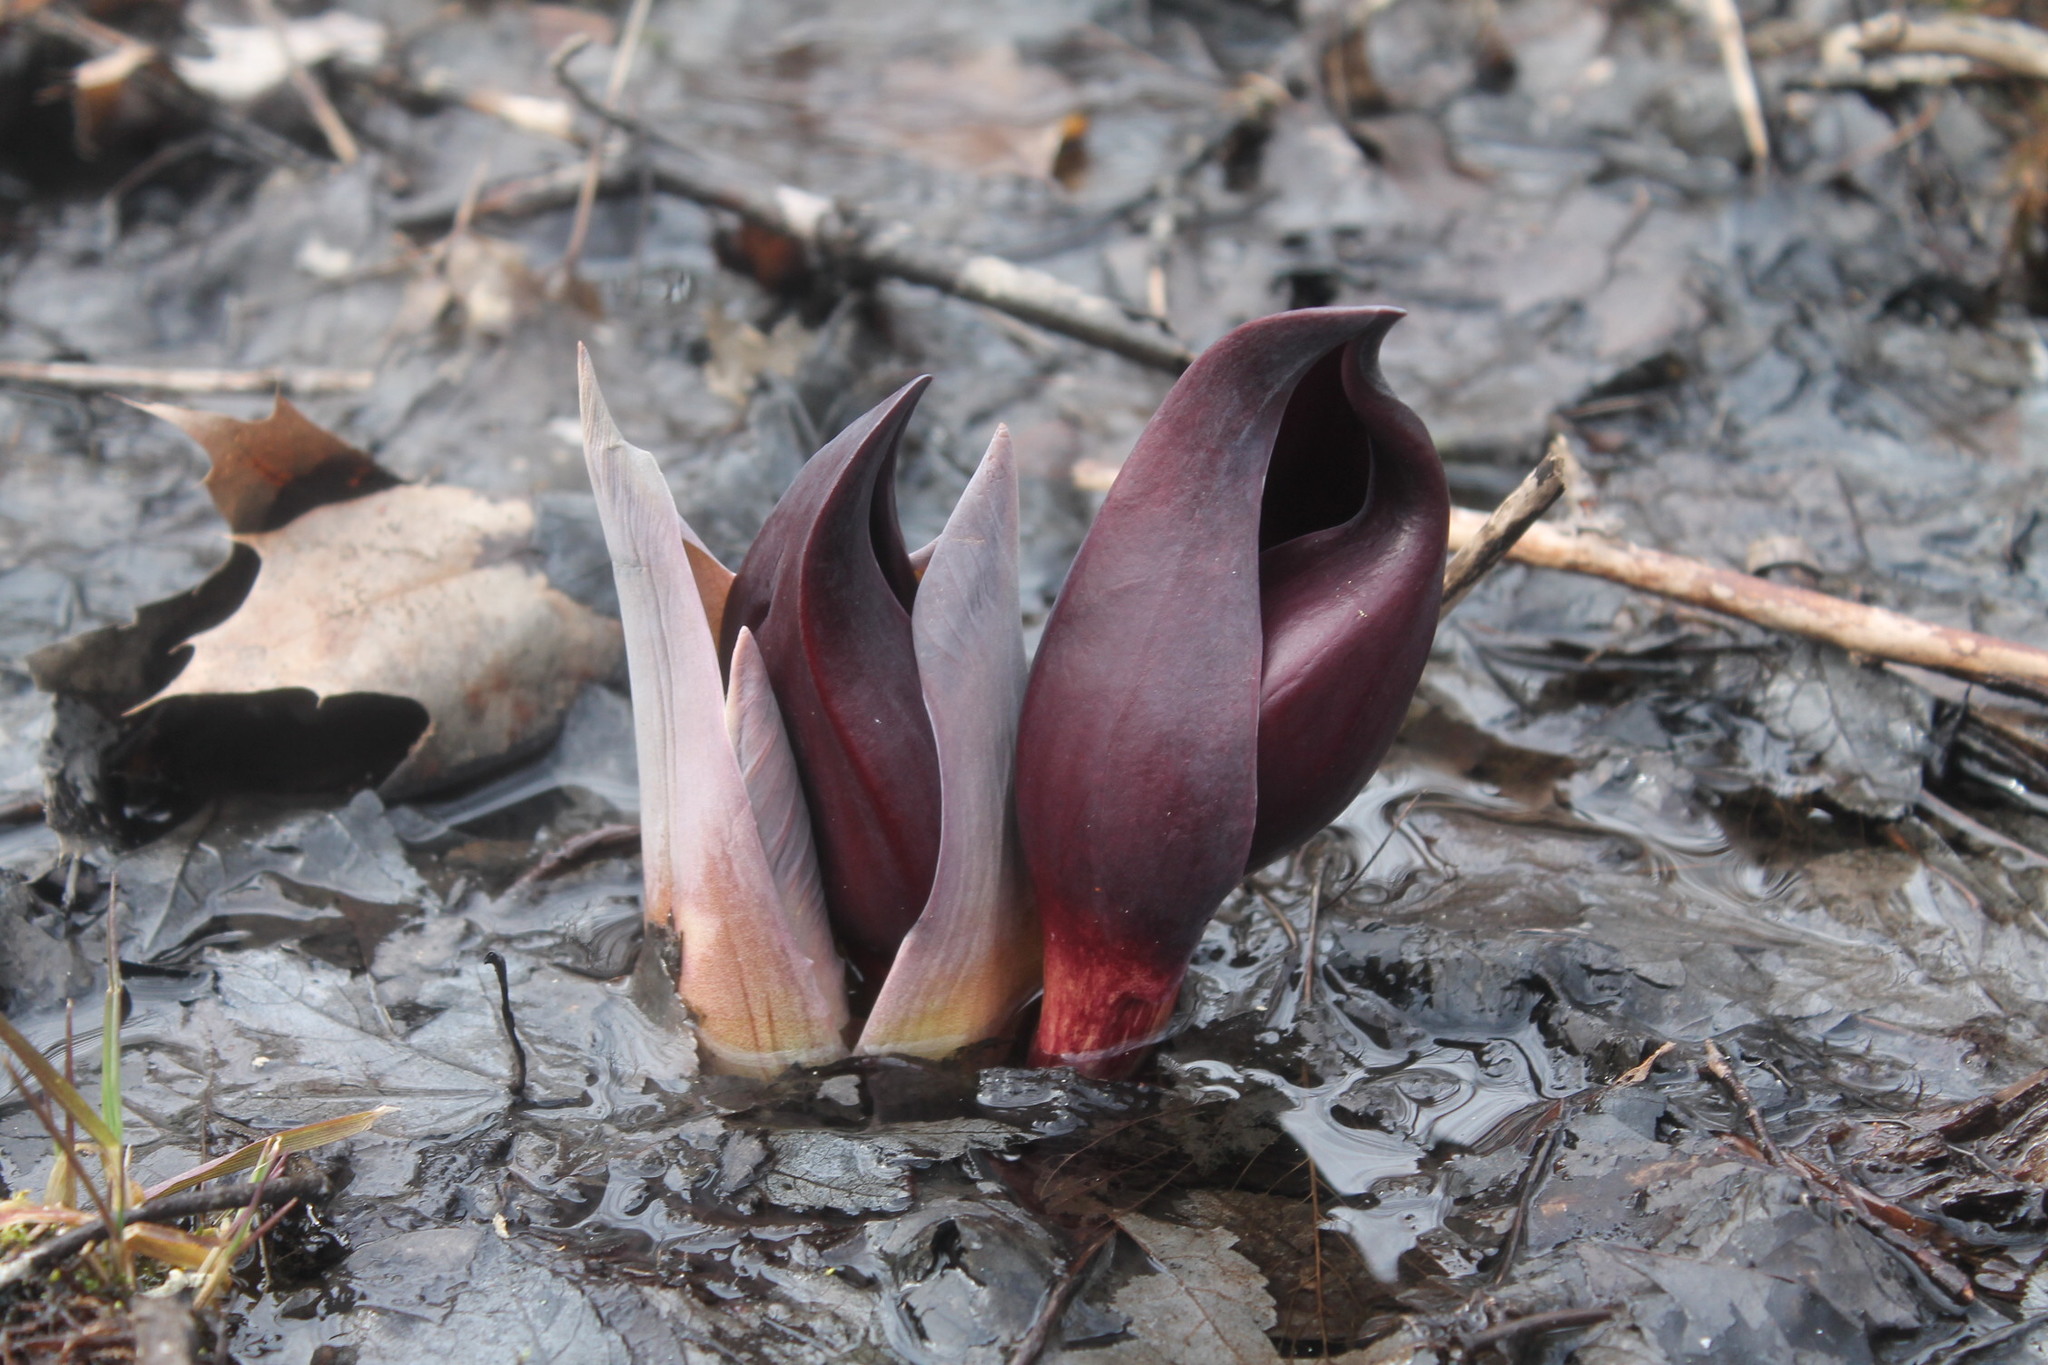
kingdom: Plantae
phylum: Tracheophyta
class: Liliopsida
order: Alismatales
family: Araceae
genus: Symplocarpus
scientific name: Symplocarpus foetidus
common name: Eastern skunk cabbage
